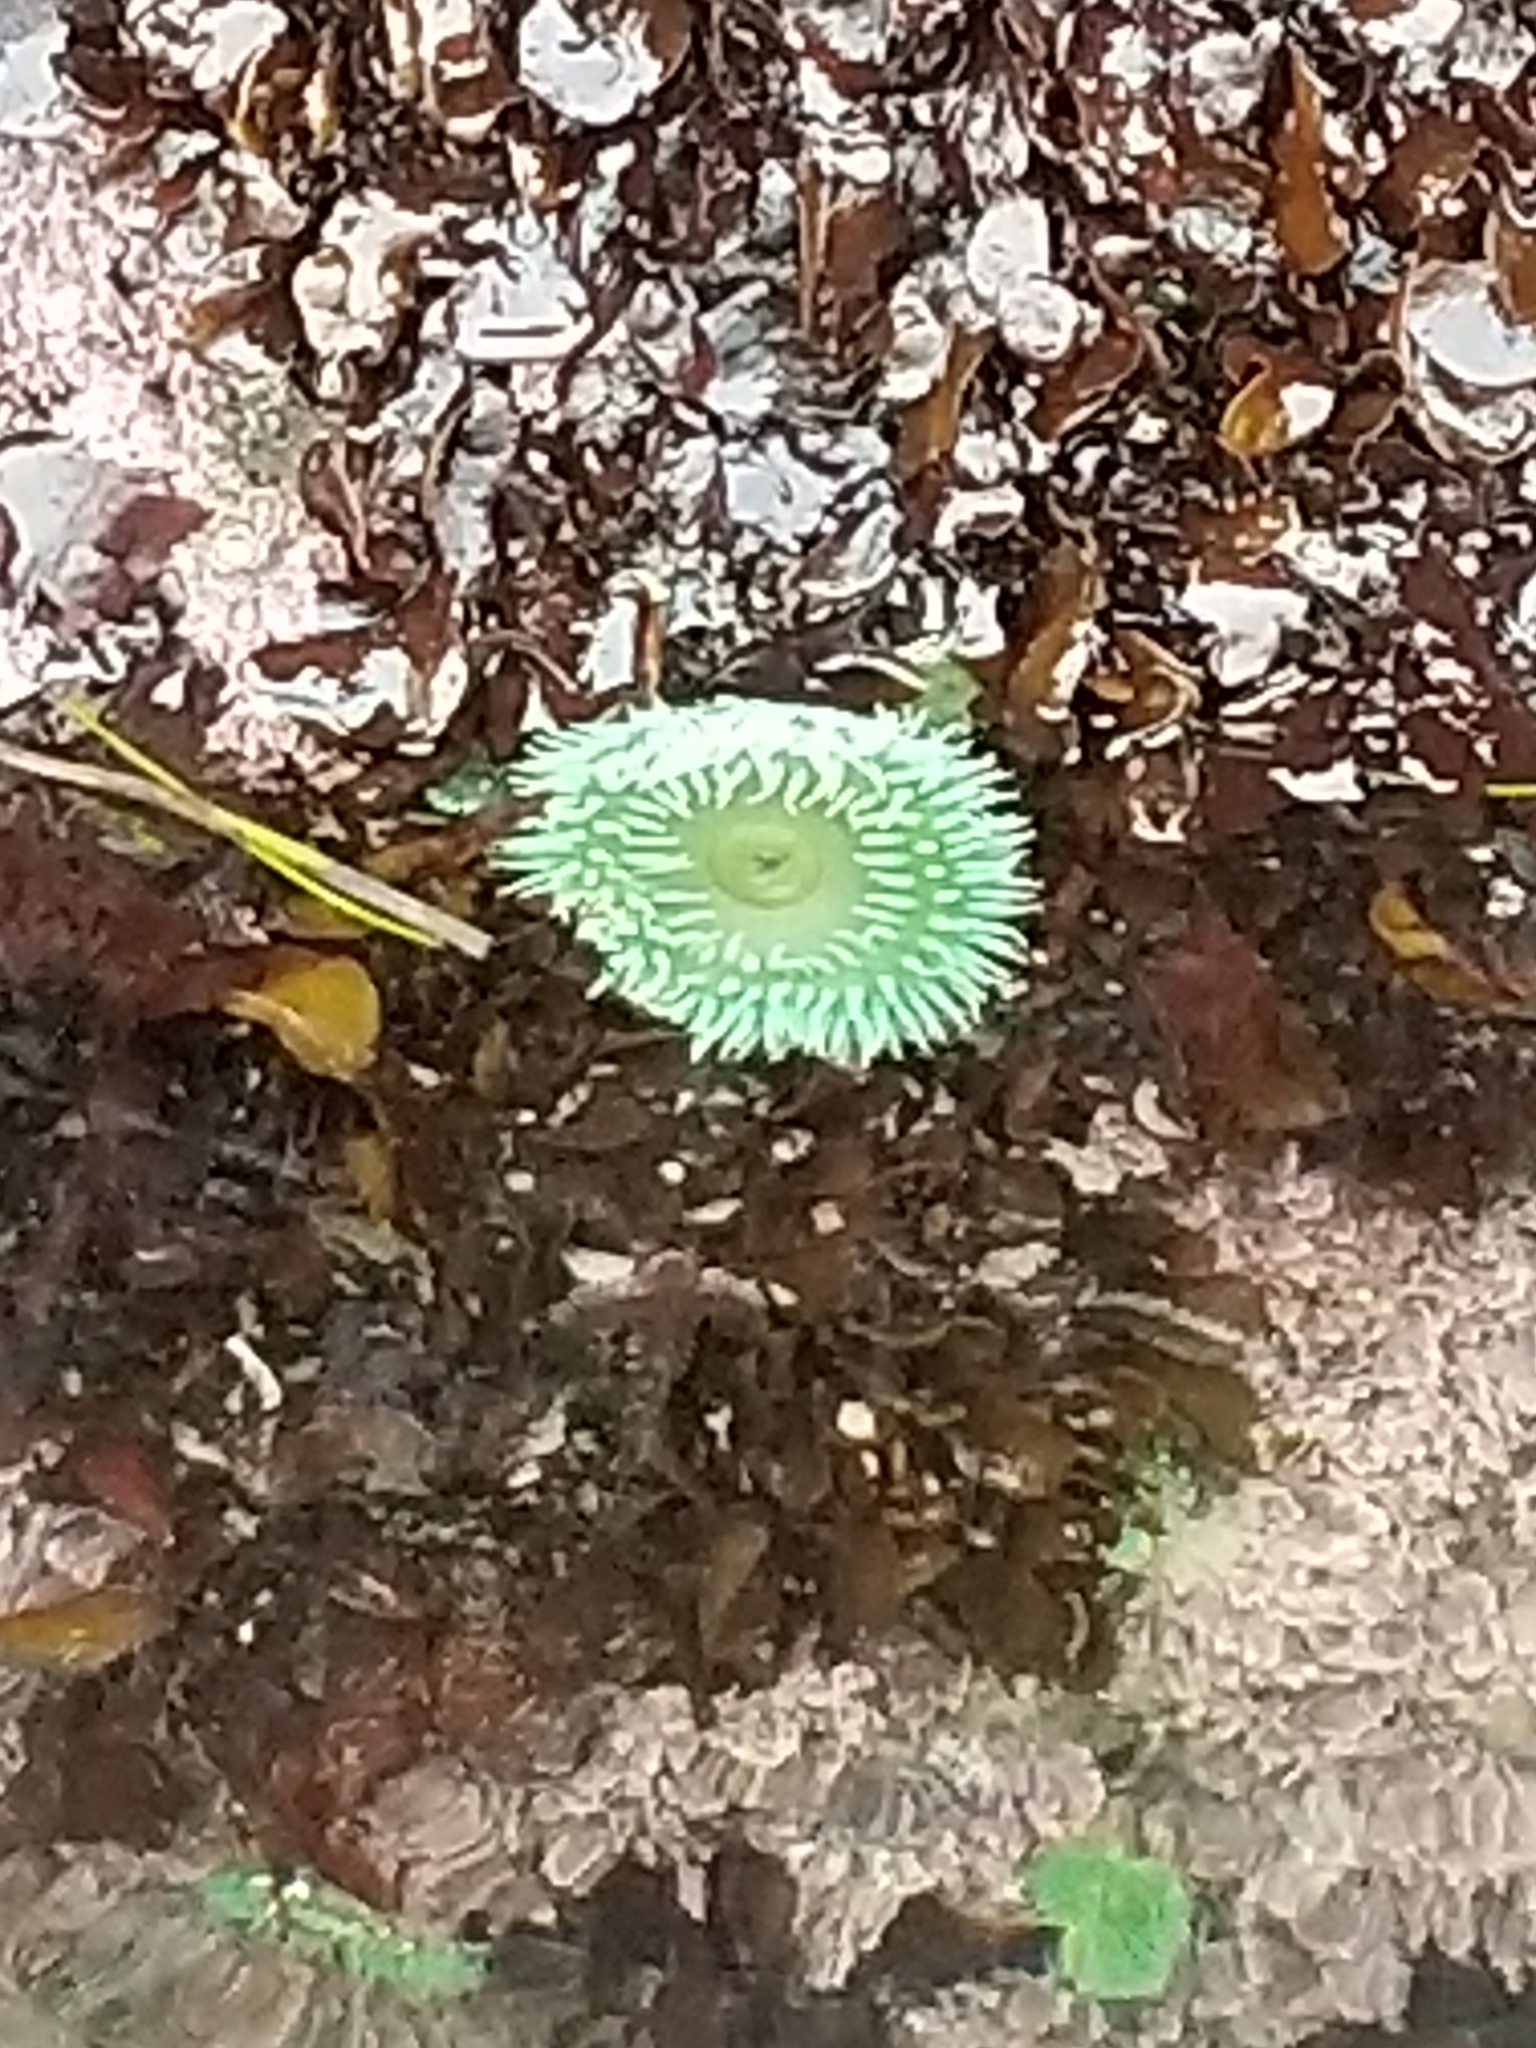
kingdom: Animalia
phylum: Cnidaria
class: Anthozoa
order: Actiniaria
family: Actiniidae
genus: Anthopleura
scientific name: Anthopleura xanthogrammica
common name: Giant green anemone
